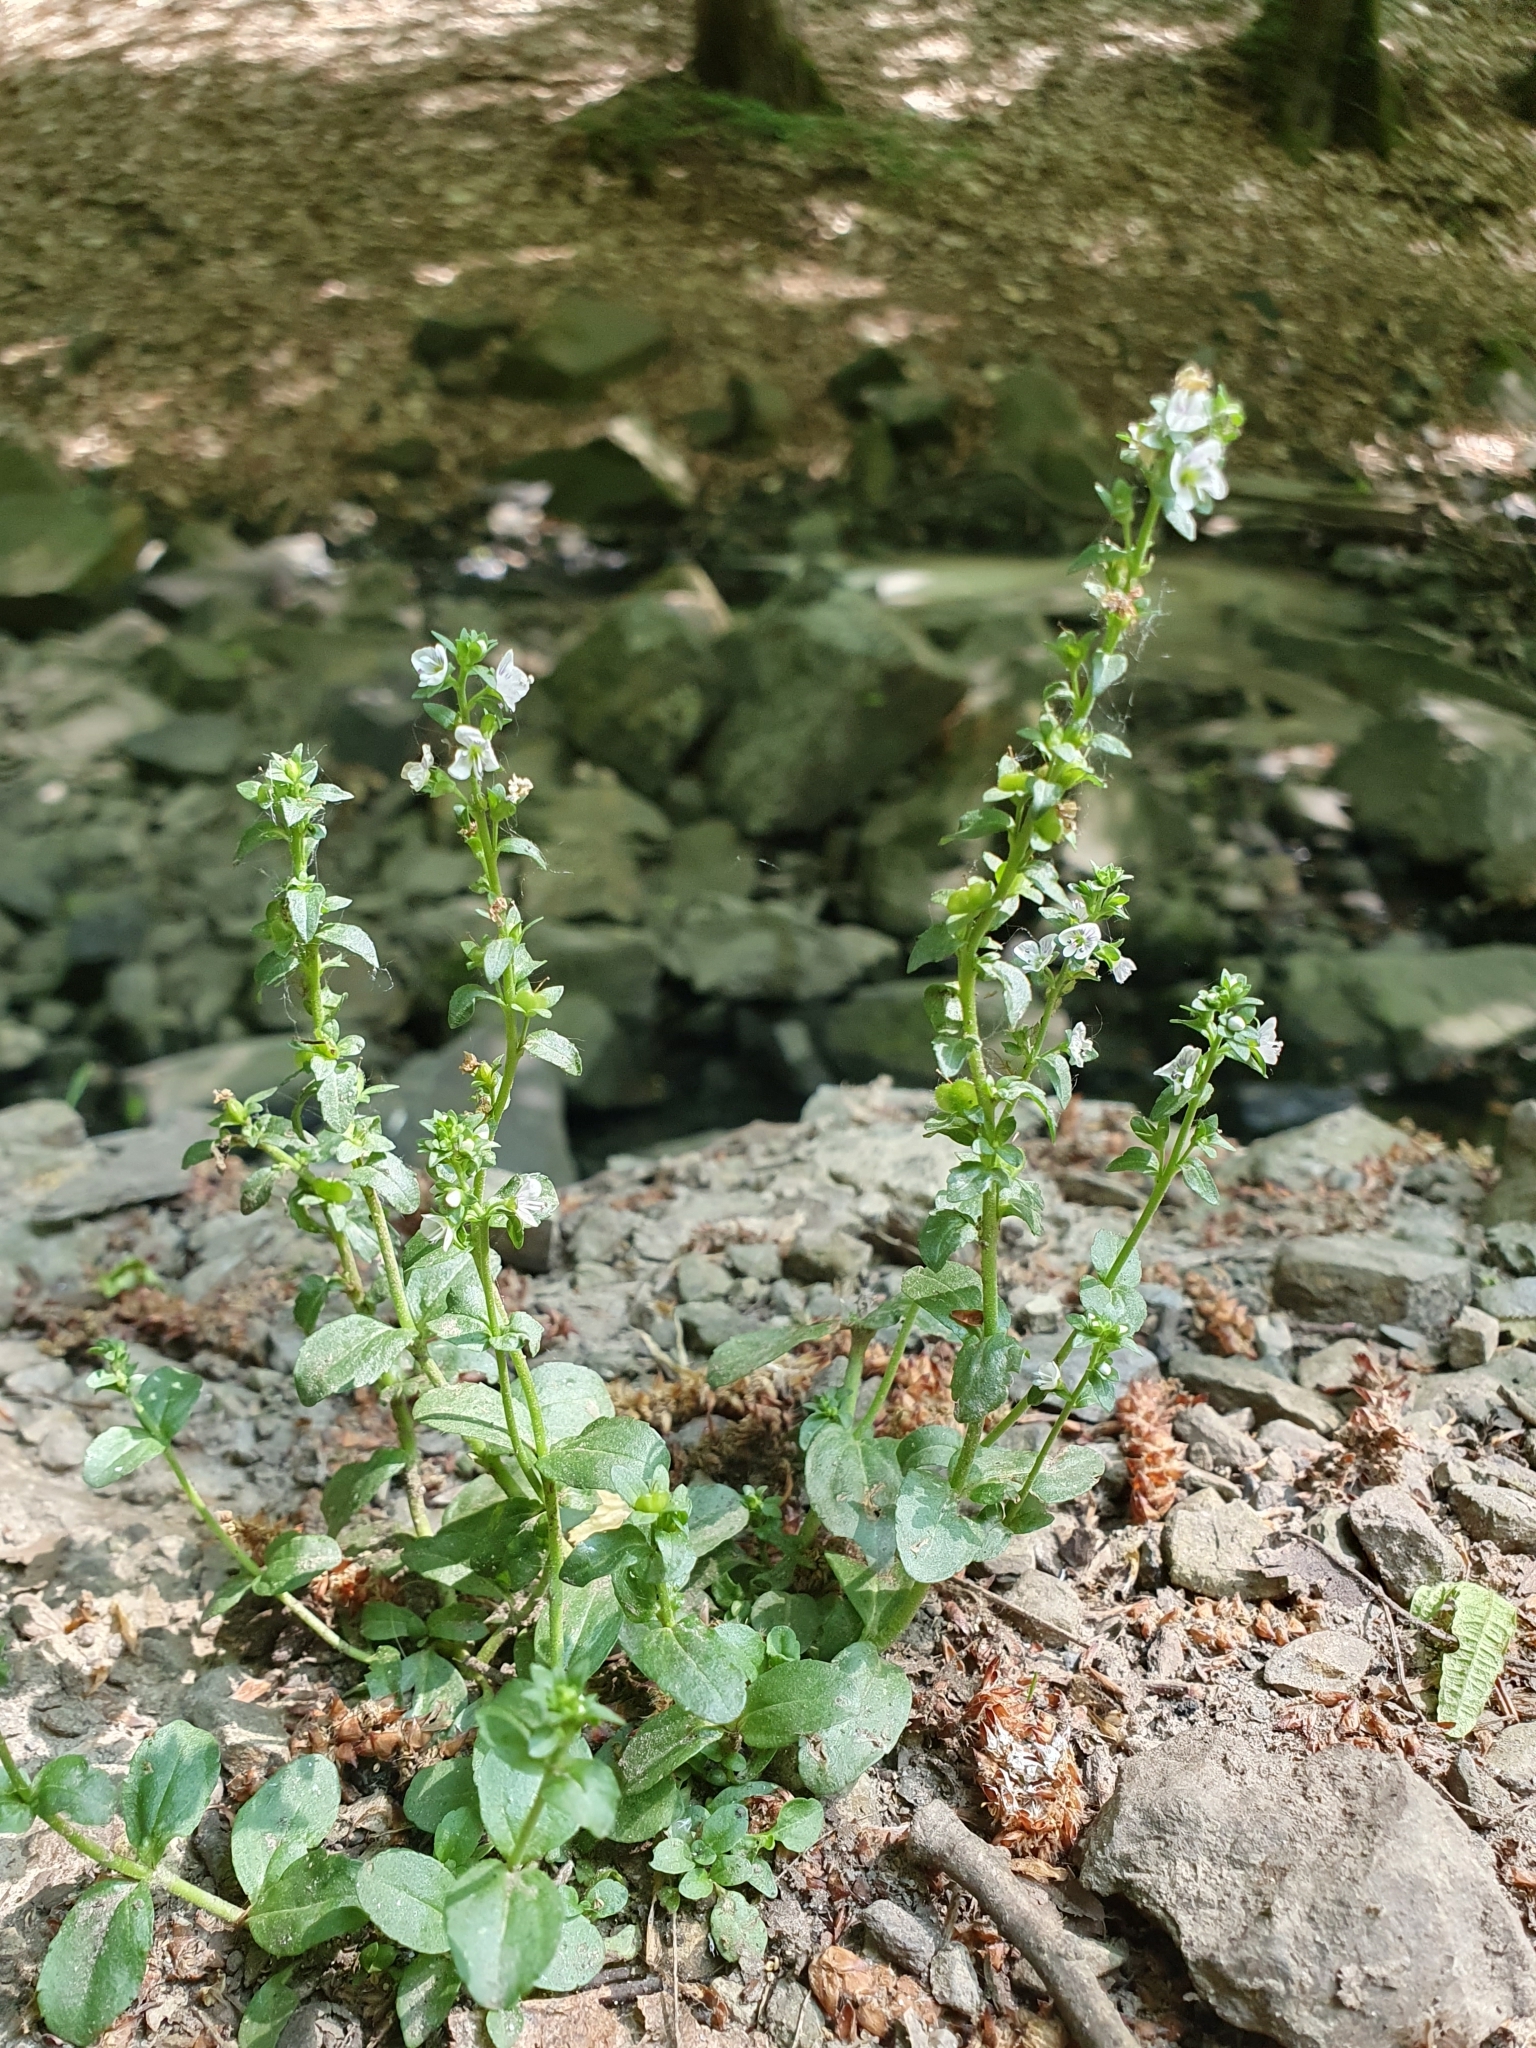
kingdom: Plantae
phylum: Tracheophyta
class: Magnoliopsida
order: Lamiales
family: Plantaginaceae
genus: Veronica
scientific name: Veronica serpyllifolia
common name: Thyme-leaved speedwell
